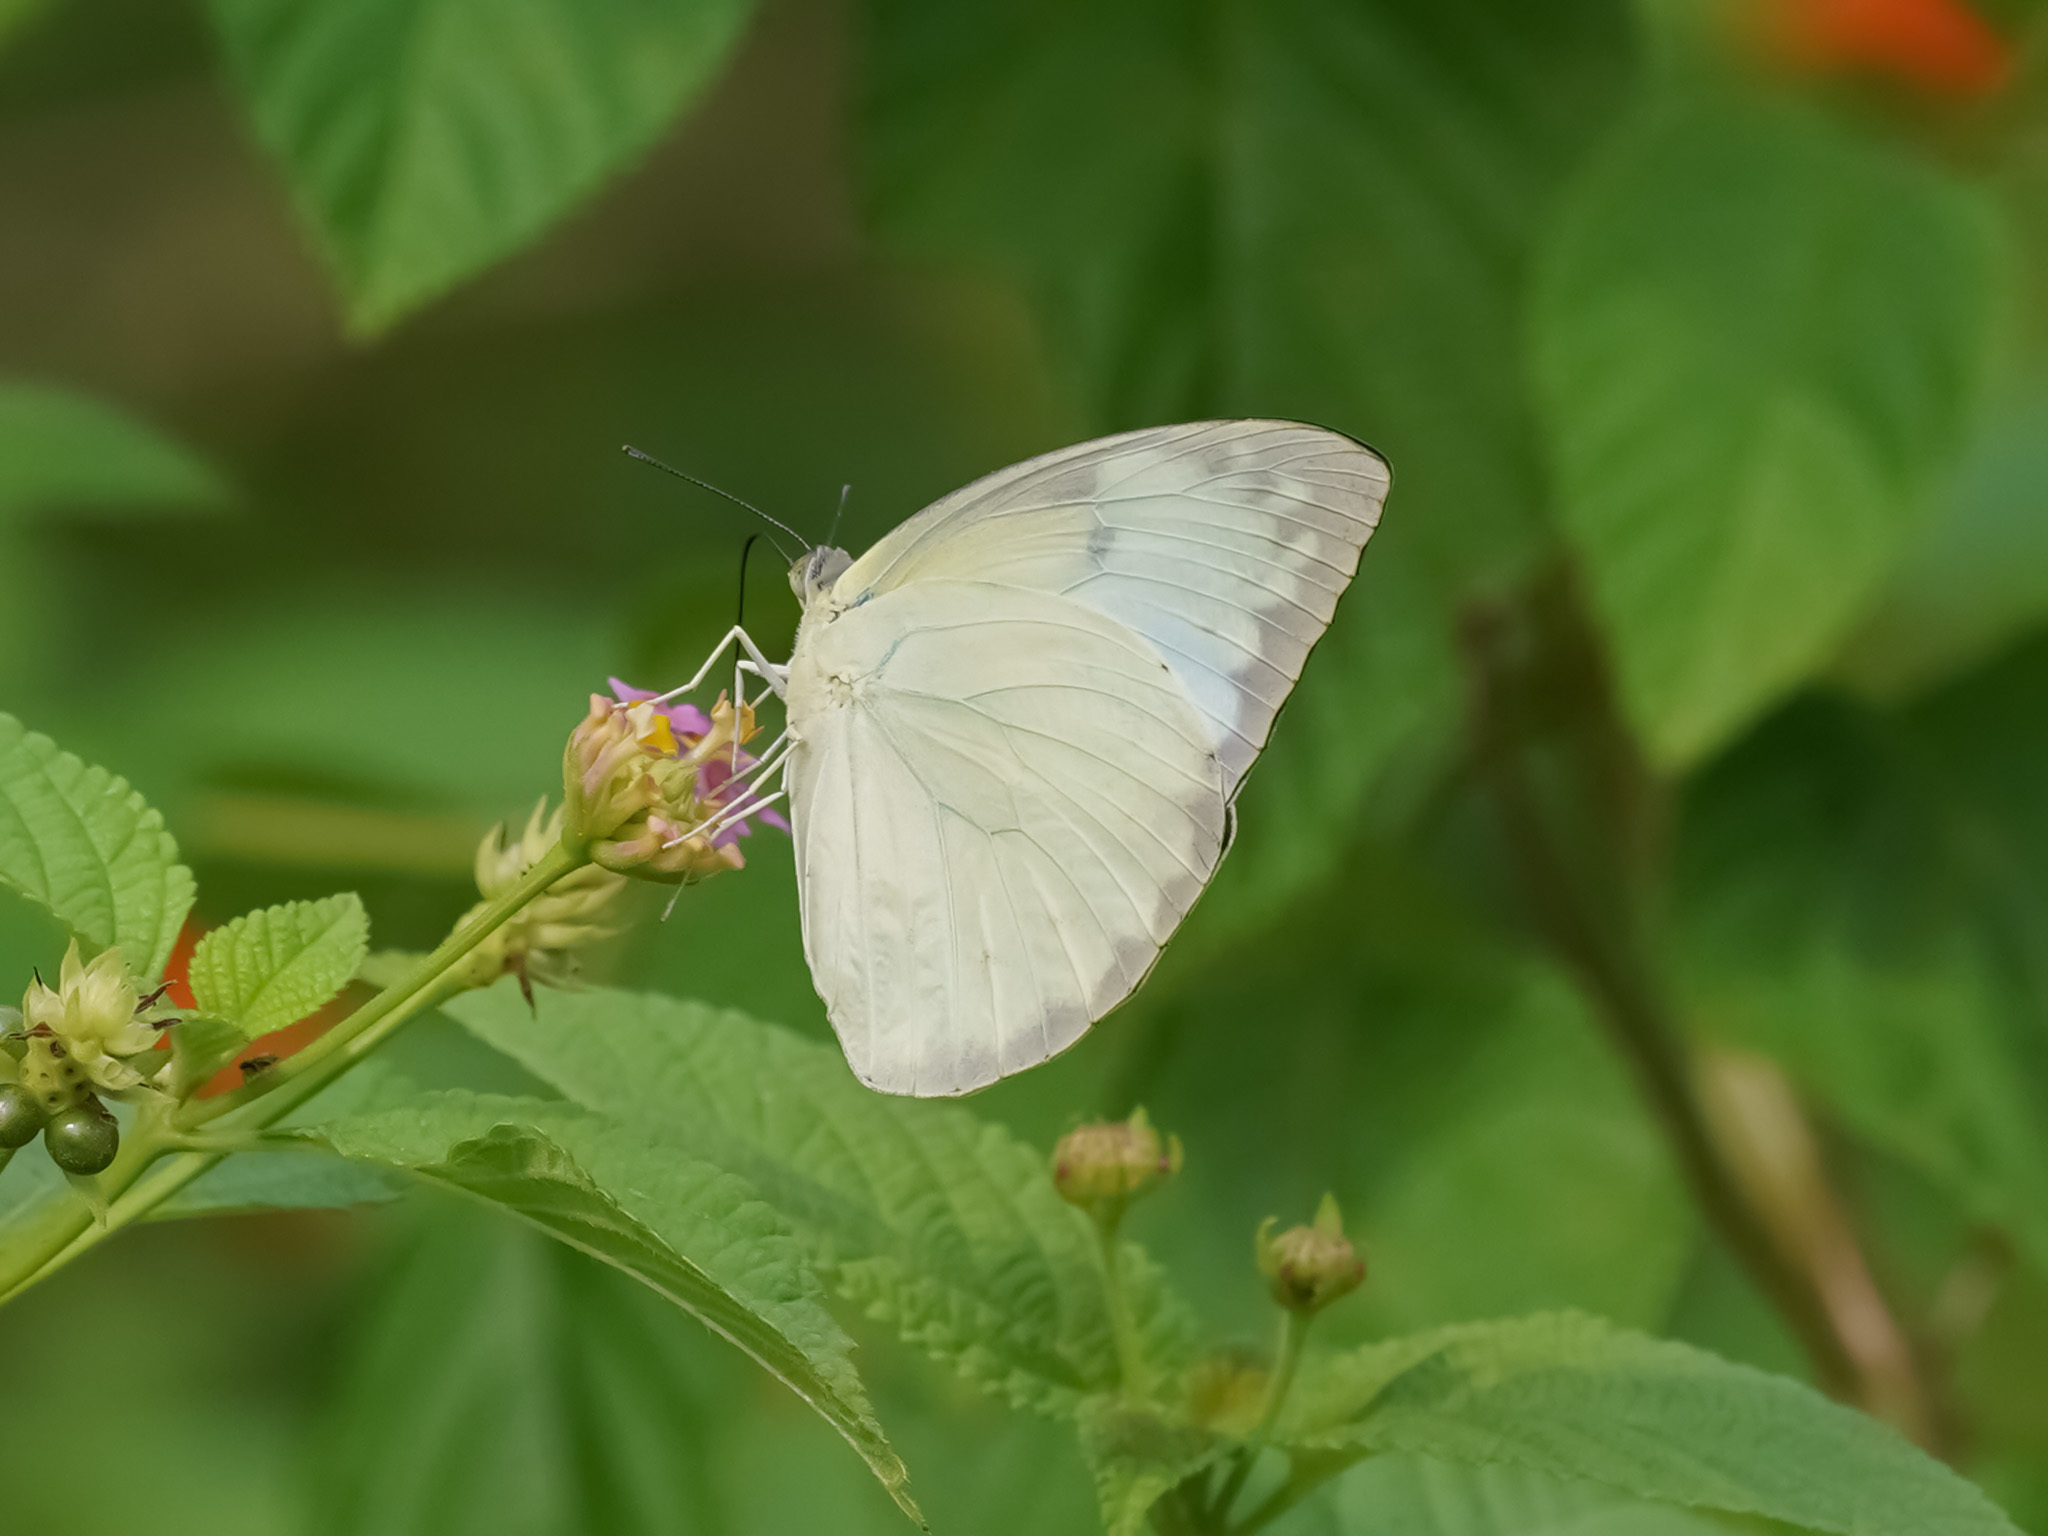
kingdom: Animalia
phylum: Arthropoda
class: Insecta
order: Lepidoptera
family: Pieridae
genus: Catopsilia
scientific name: Catopsilia pomona
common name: Common emigrant
